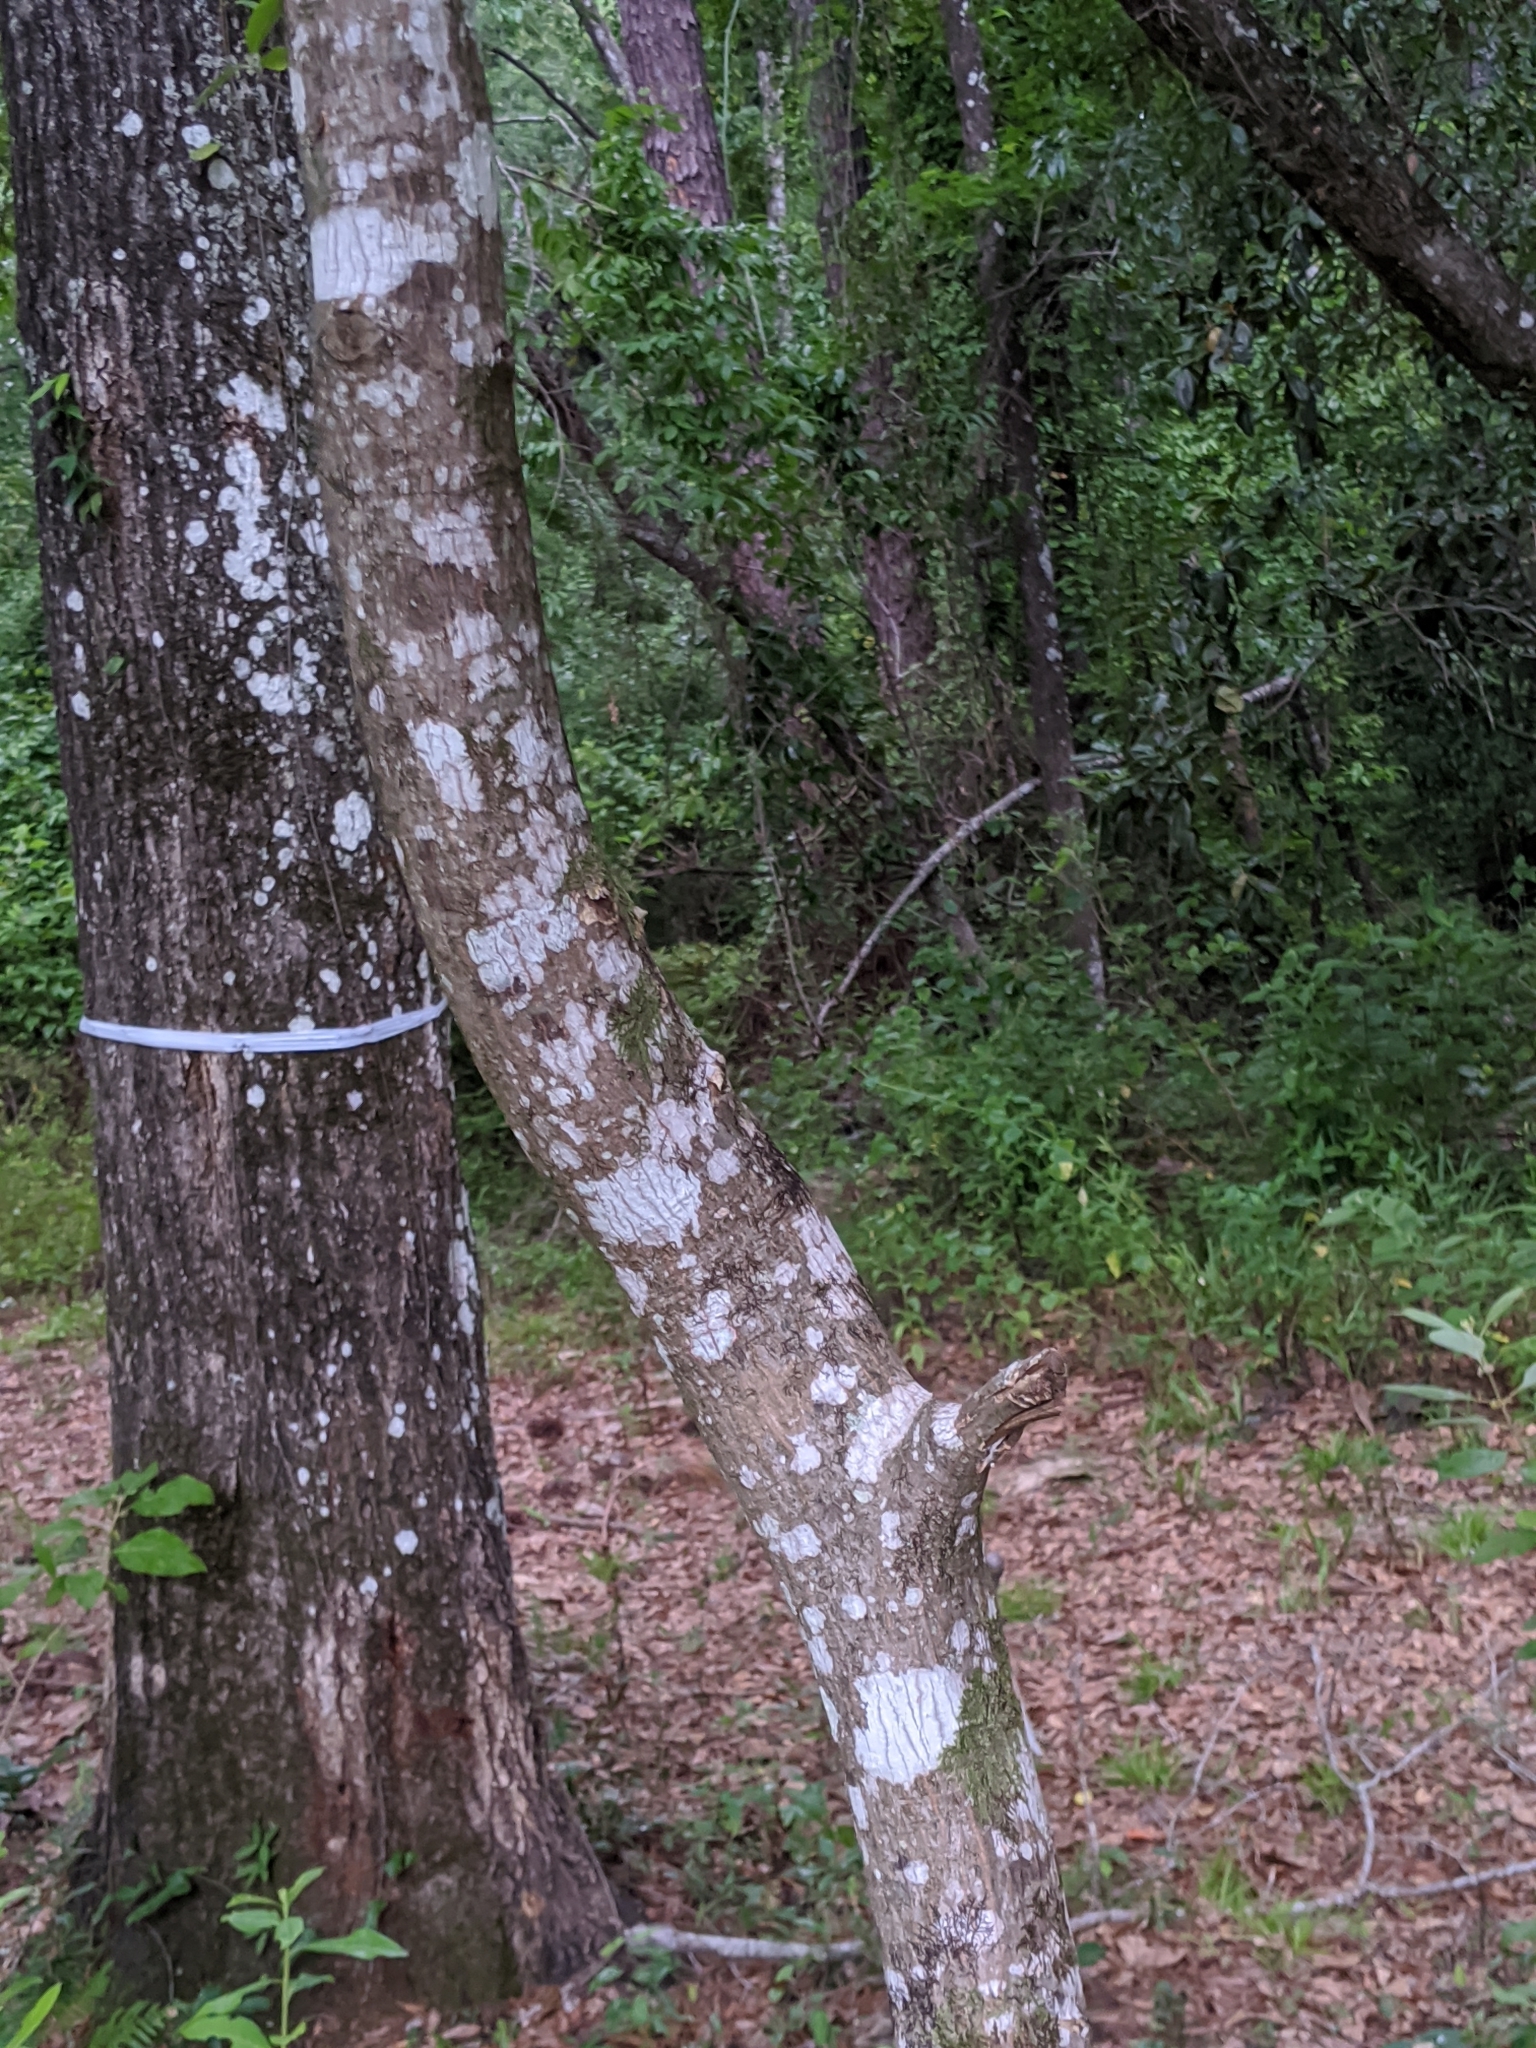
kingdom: Plantae
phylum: Tracheophyta
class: Magnoliopsida
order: Ericales
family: Symplocaceae
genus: Symplocos
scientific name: Symplocos tinctoria
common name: Horse-sugar
